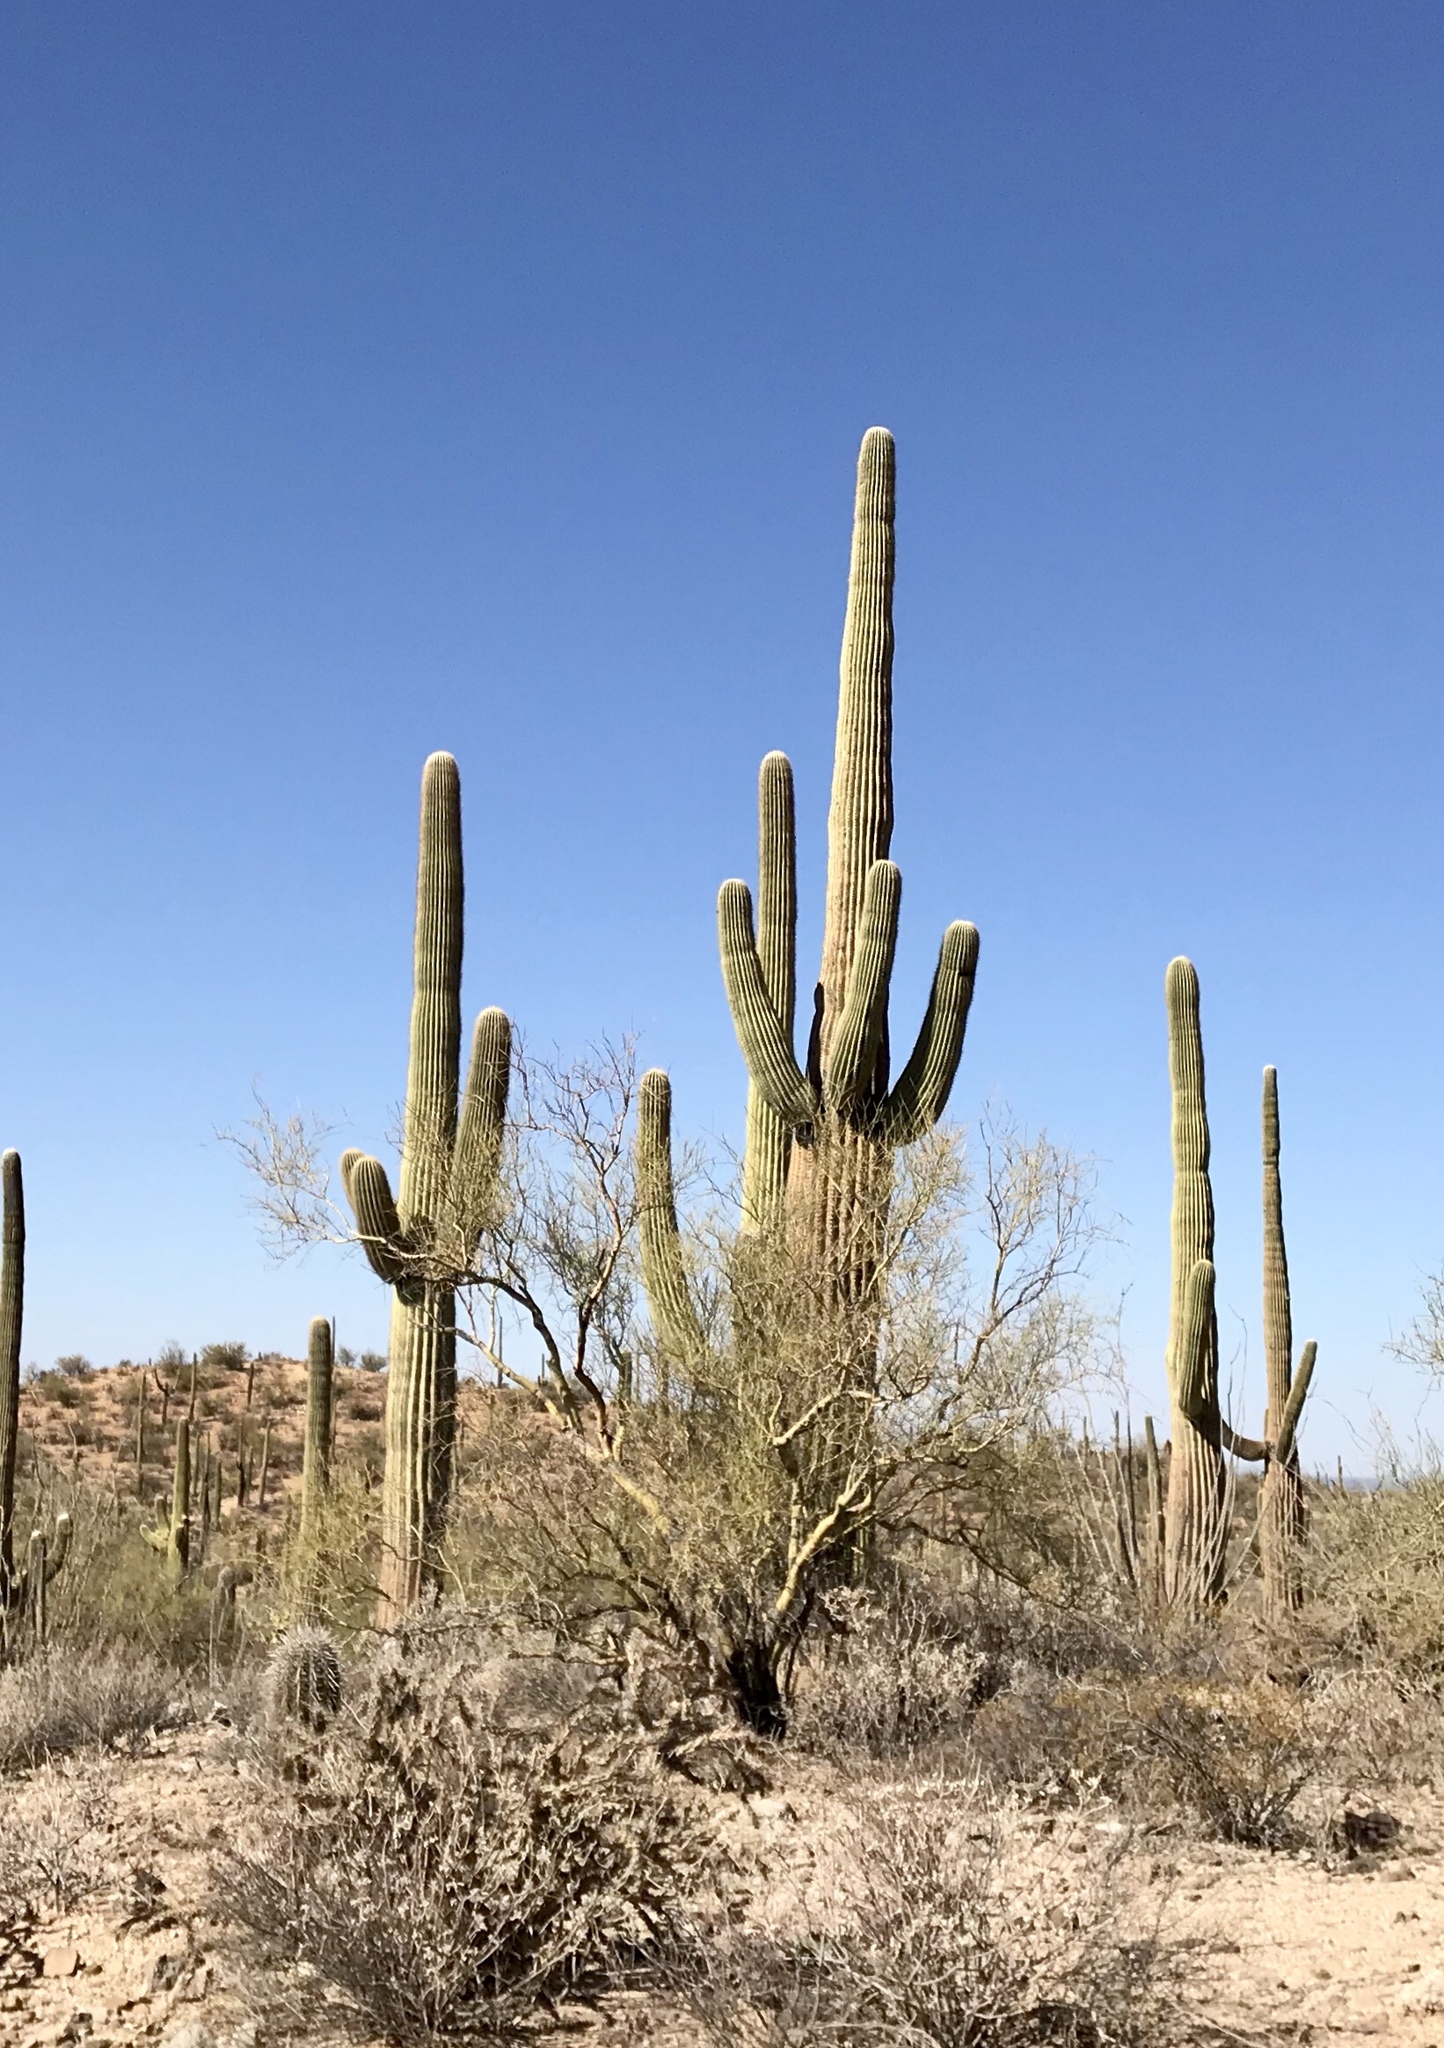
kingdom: Plantae
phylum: Tracheophyta
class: Magnoliopsida
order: Caryophyllales
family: Cactaceae
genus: Carnegiea
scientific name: Carnegiea gigantea
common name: Saguaro
